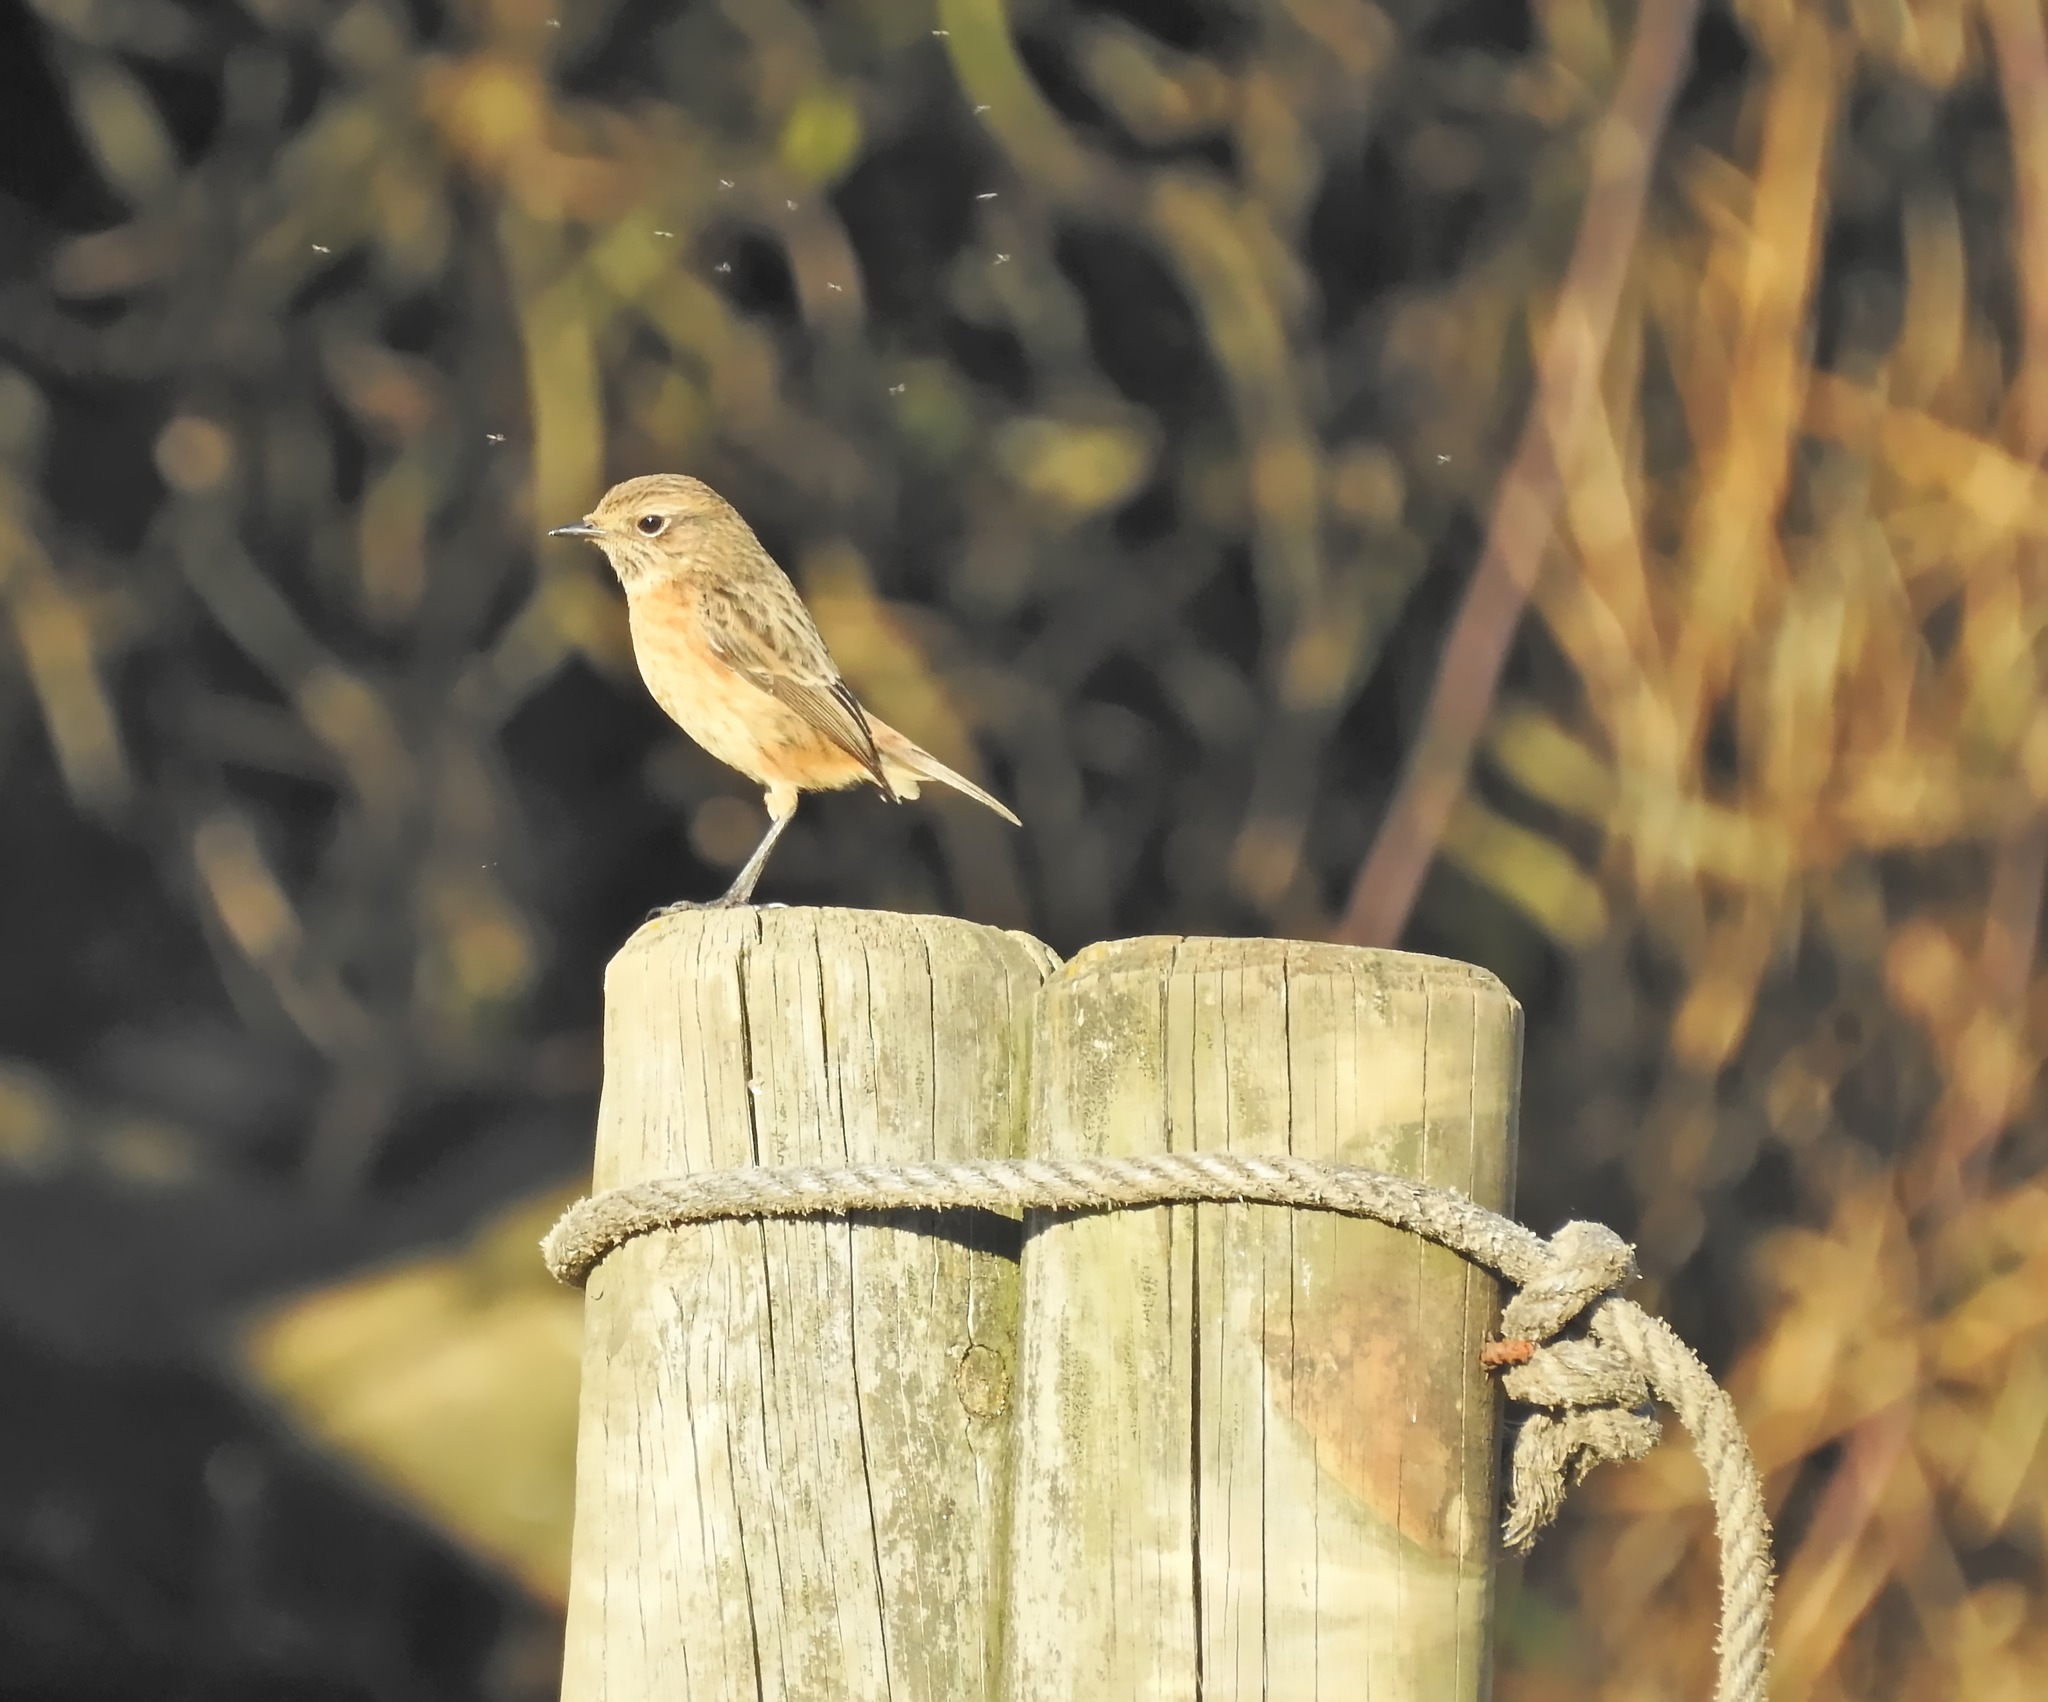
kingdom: Animalia
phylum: Chordata
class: Aves
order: Passeriformes
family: Muscicapidae
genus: Saxicola
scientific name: Saxicola rubicola
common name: European stonechat
